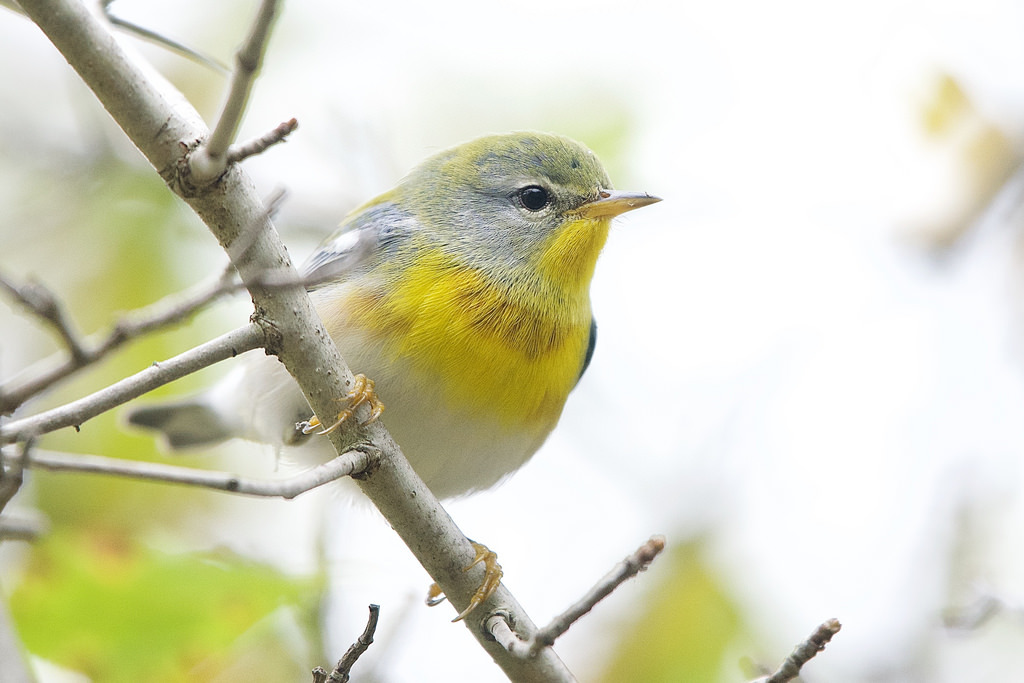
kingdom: Animalia
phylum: Chordata
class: Aves
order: Passeriformes
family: Parulidae
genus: Setophaga
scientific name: Setophaga americana
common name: Northern parula
